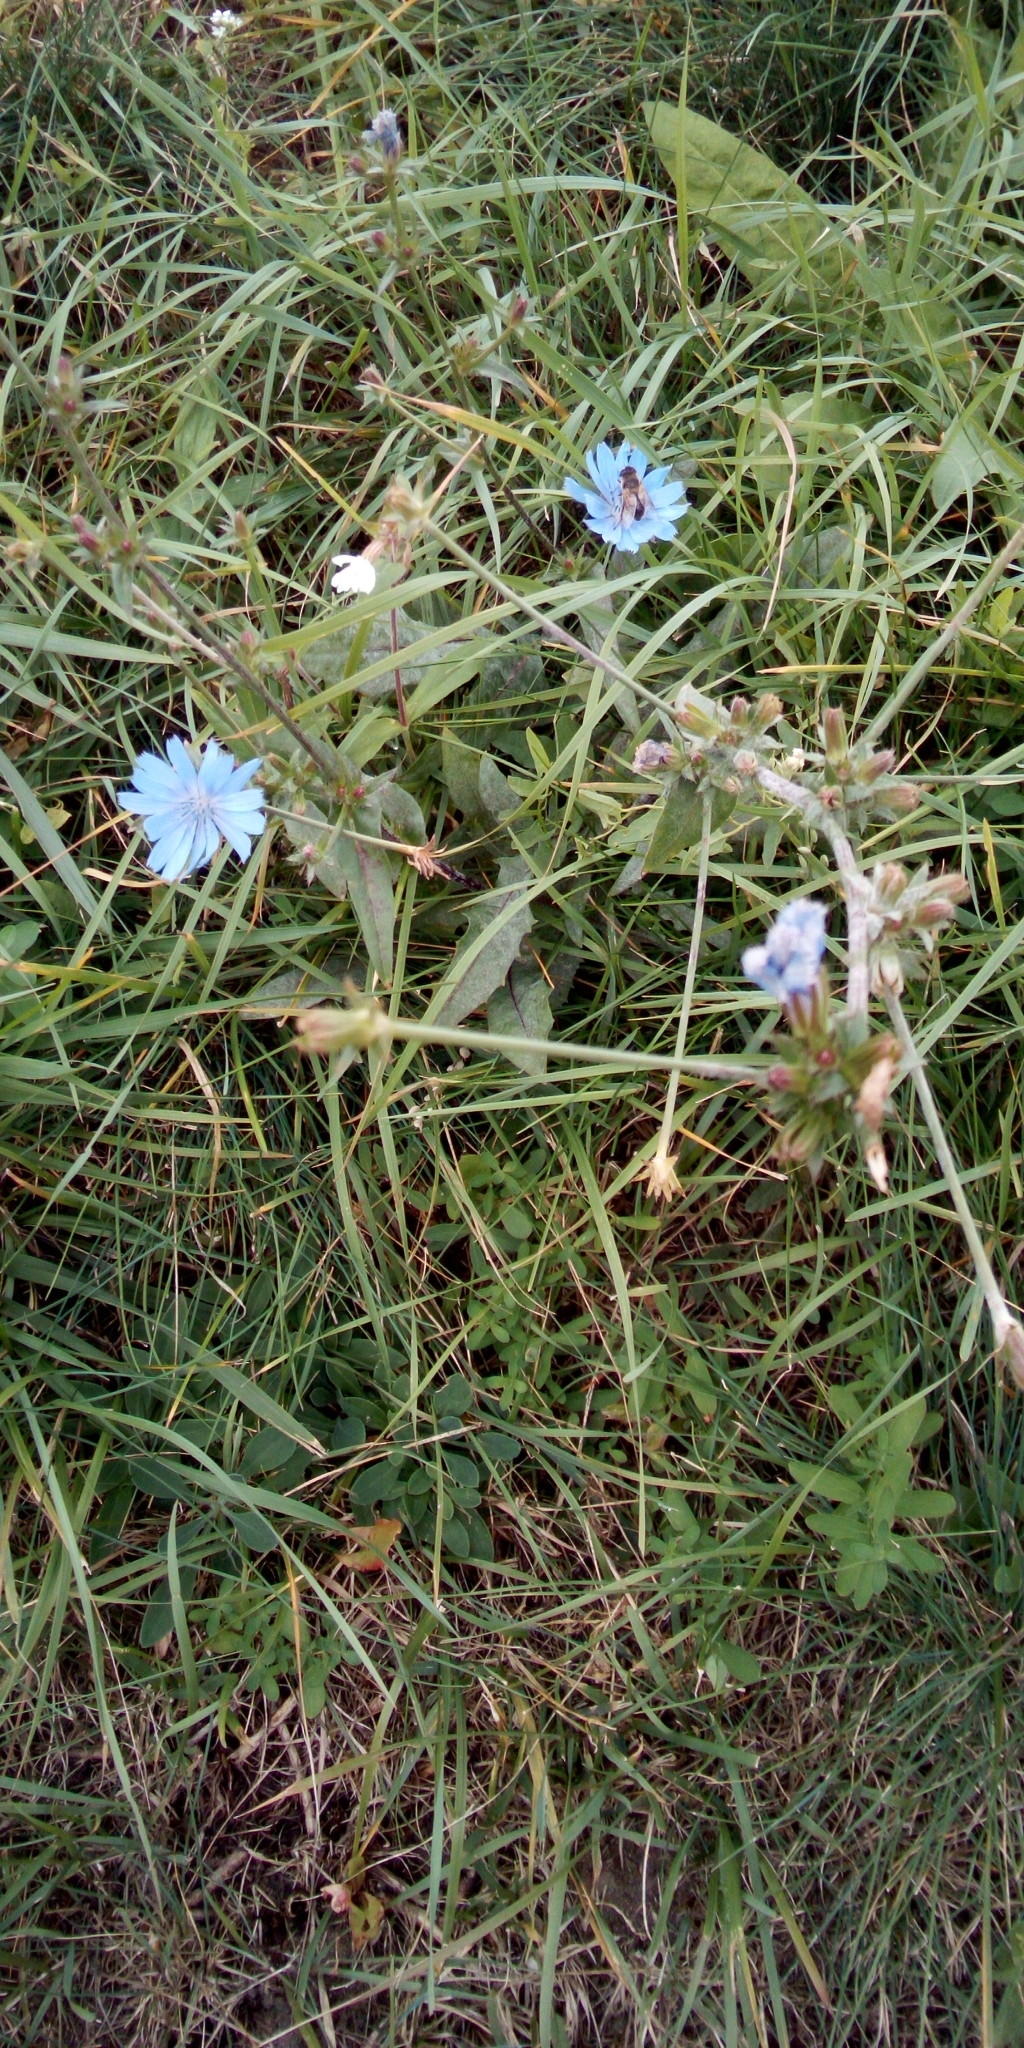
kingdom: Plantae
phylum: Tracheophyta
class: Magnoliopsida
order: Asterales
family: Asteraceae
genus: Cichorium
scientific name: Cichorium intybus
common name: Chicory
